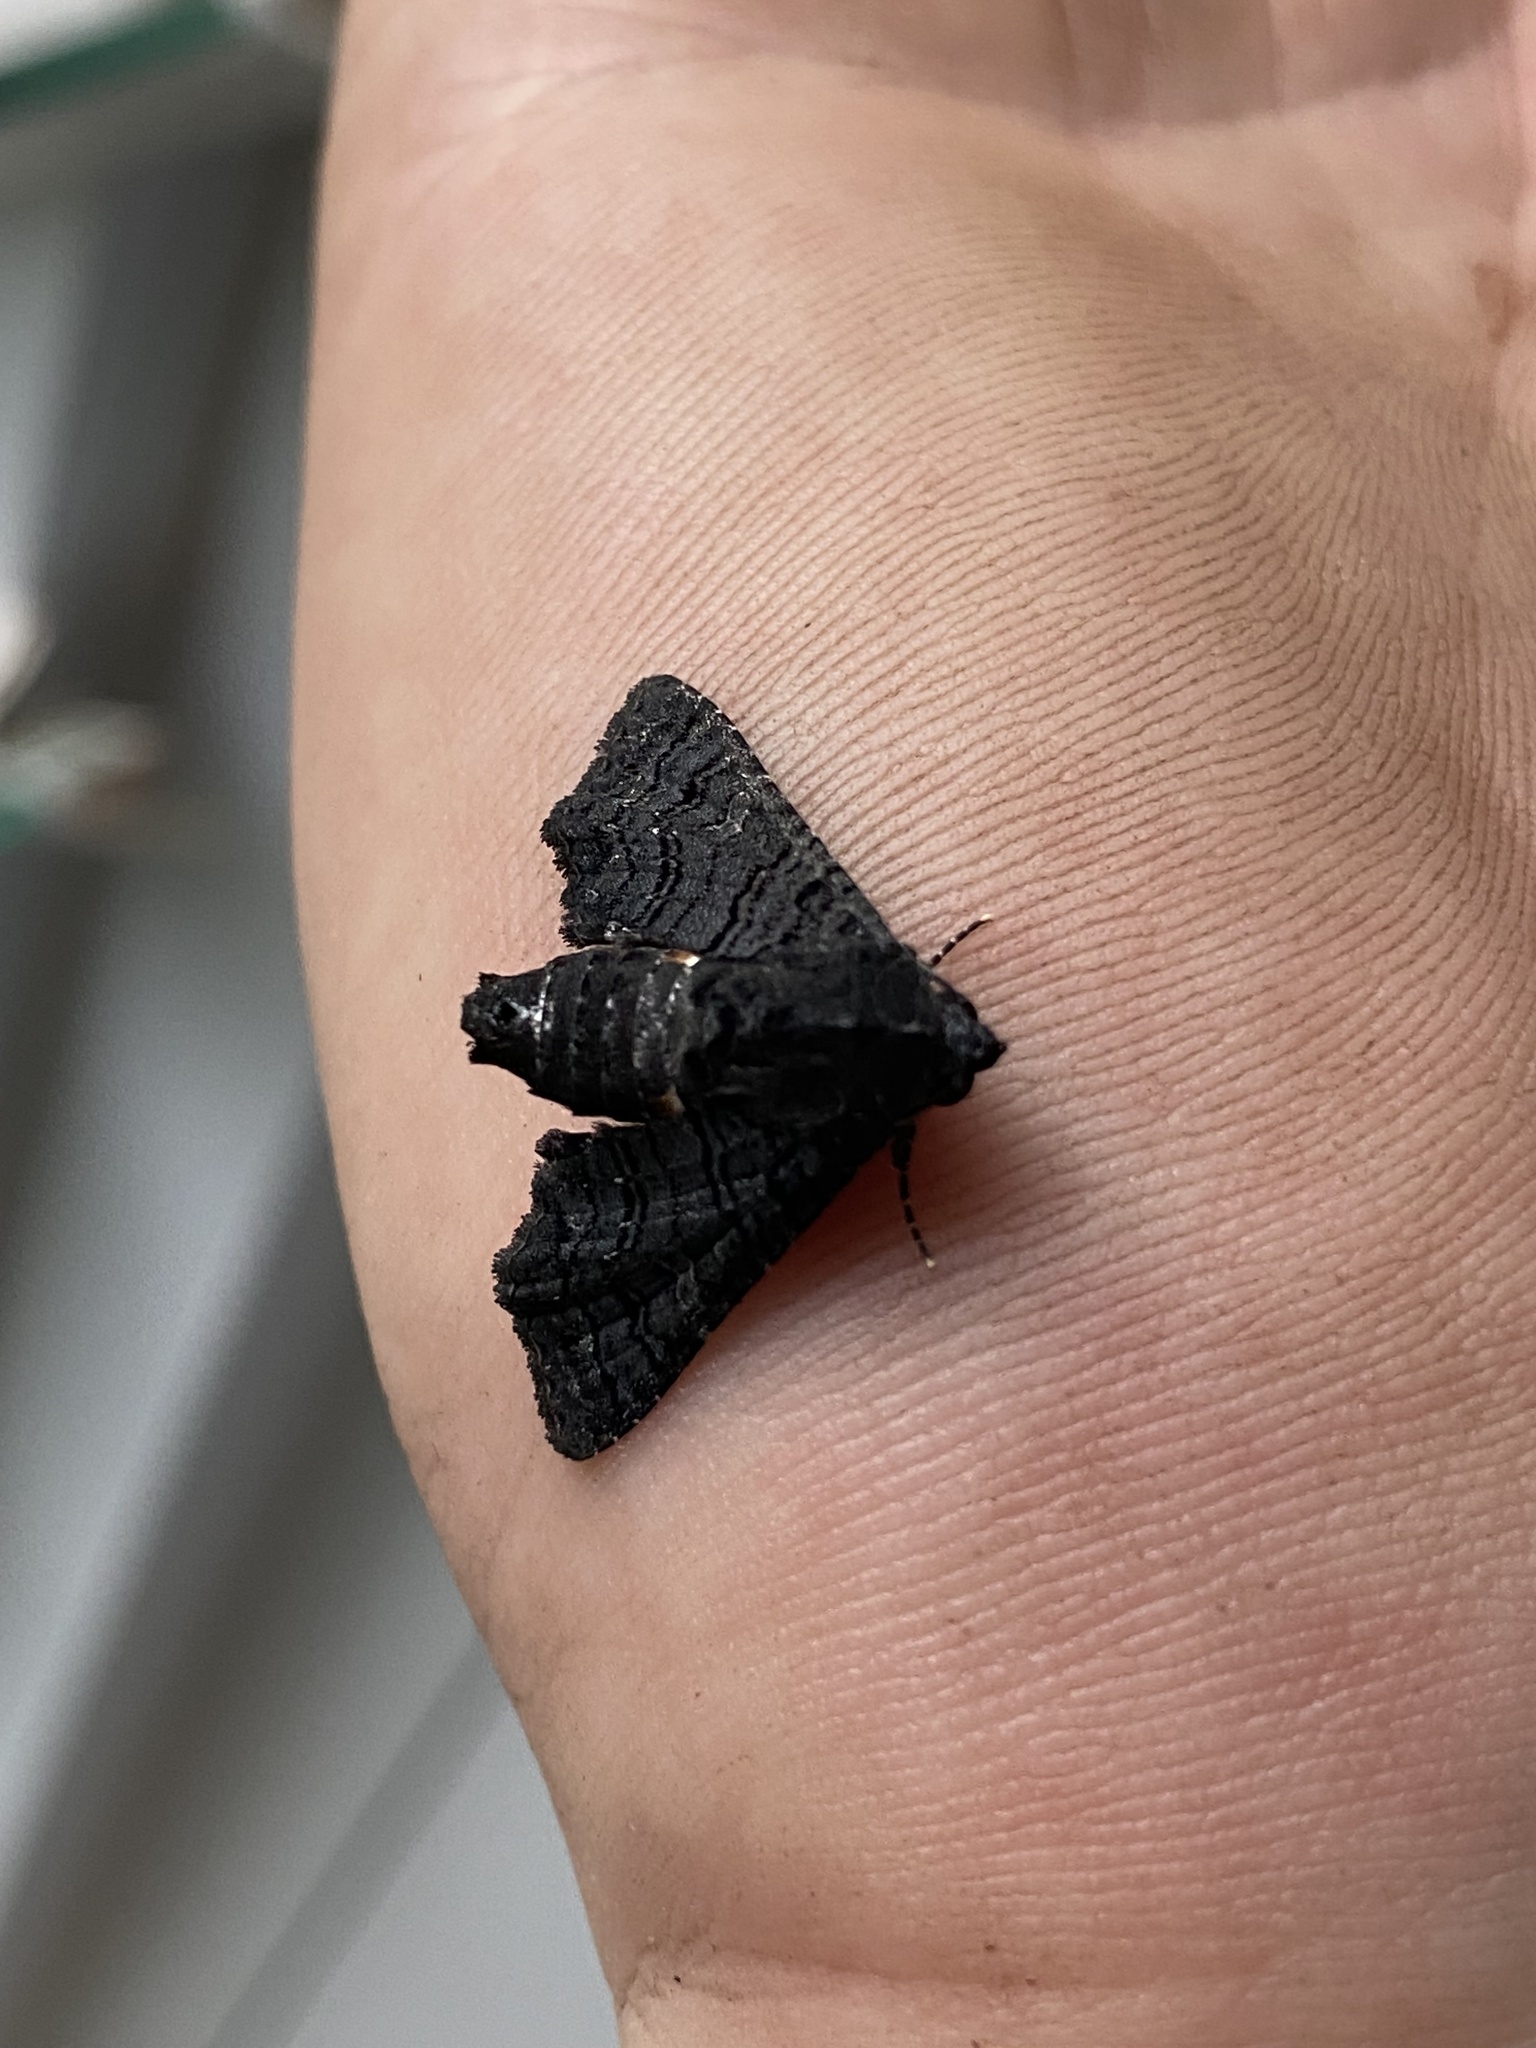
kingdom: Animalia
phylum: Arthropoda
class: Insecta
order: Lepidoptera
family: Euteliidae
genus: Pataeta
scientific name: Pataeta carbo
